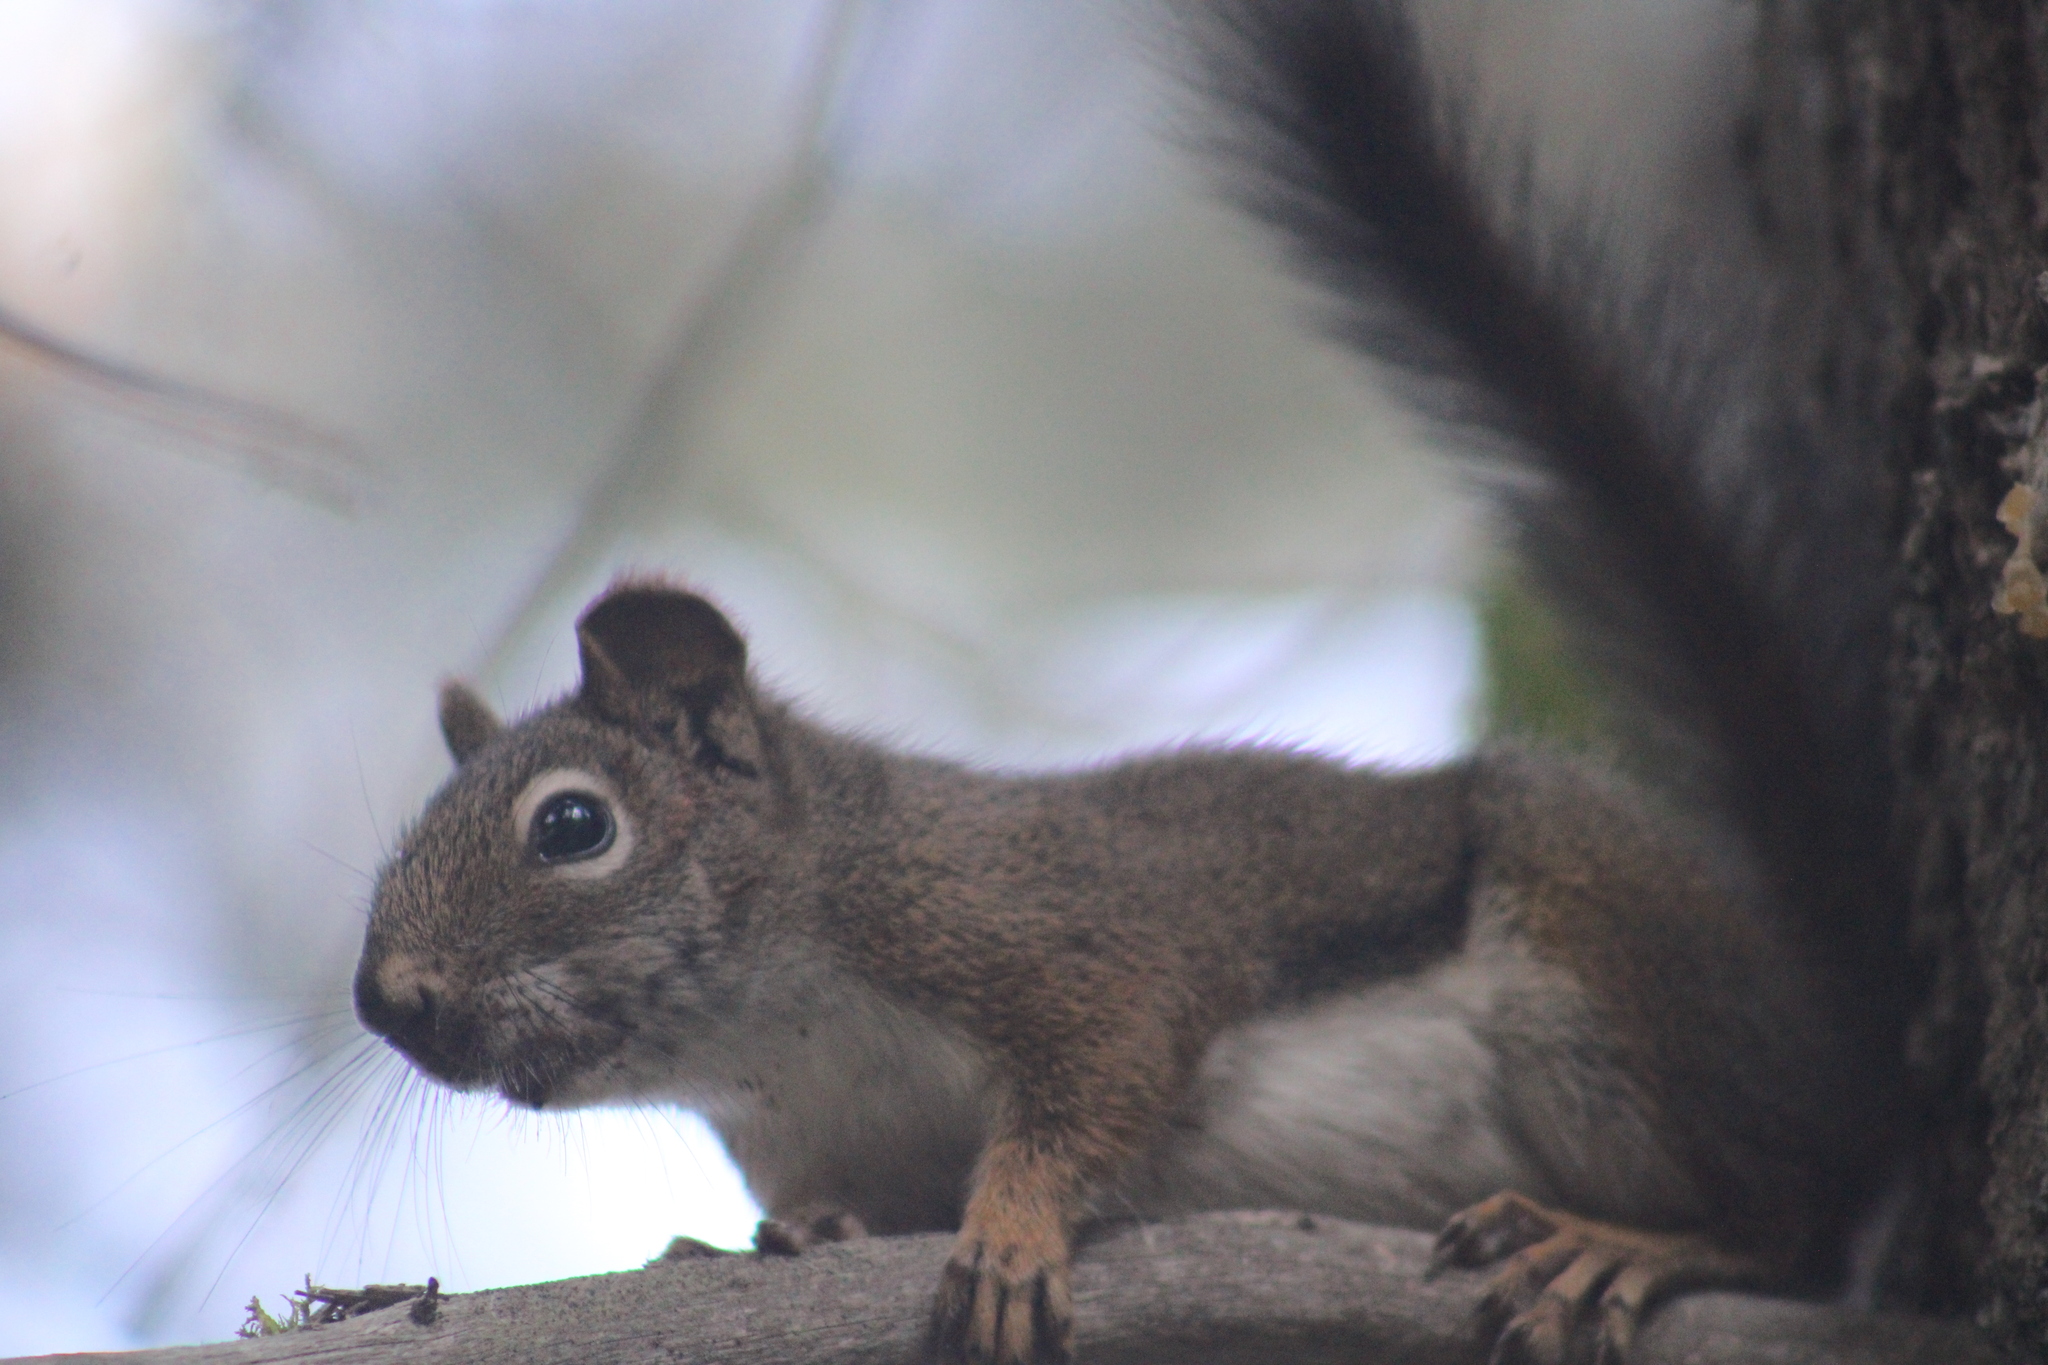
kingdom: Animalia
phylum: Chordata
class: Mammalia
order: Rodentia
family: Sciuridae
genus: Tamiasciurus
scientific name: Tamiasciurus hudsonicus
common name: Red squirrel
